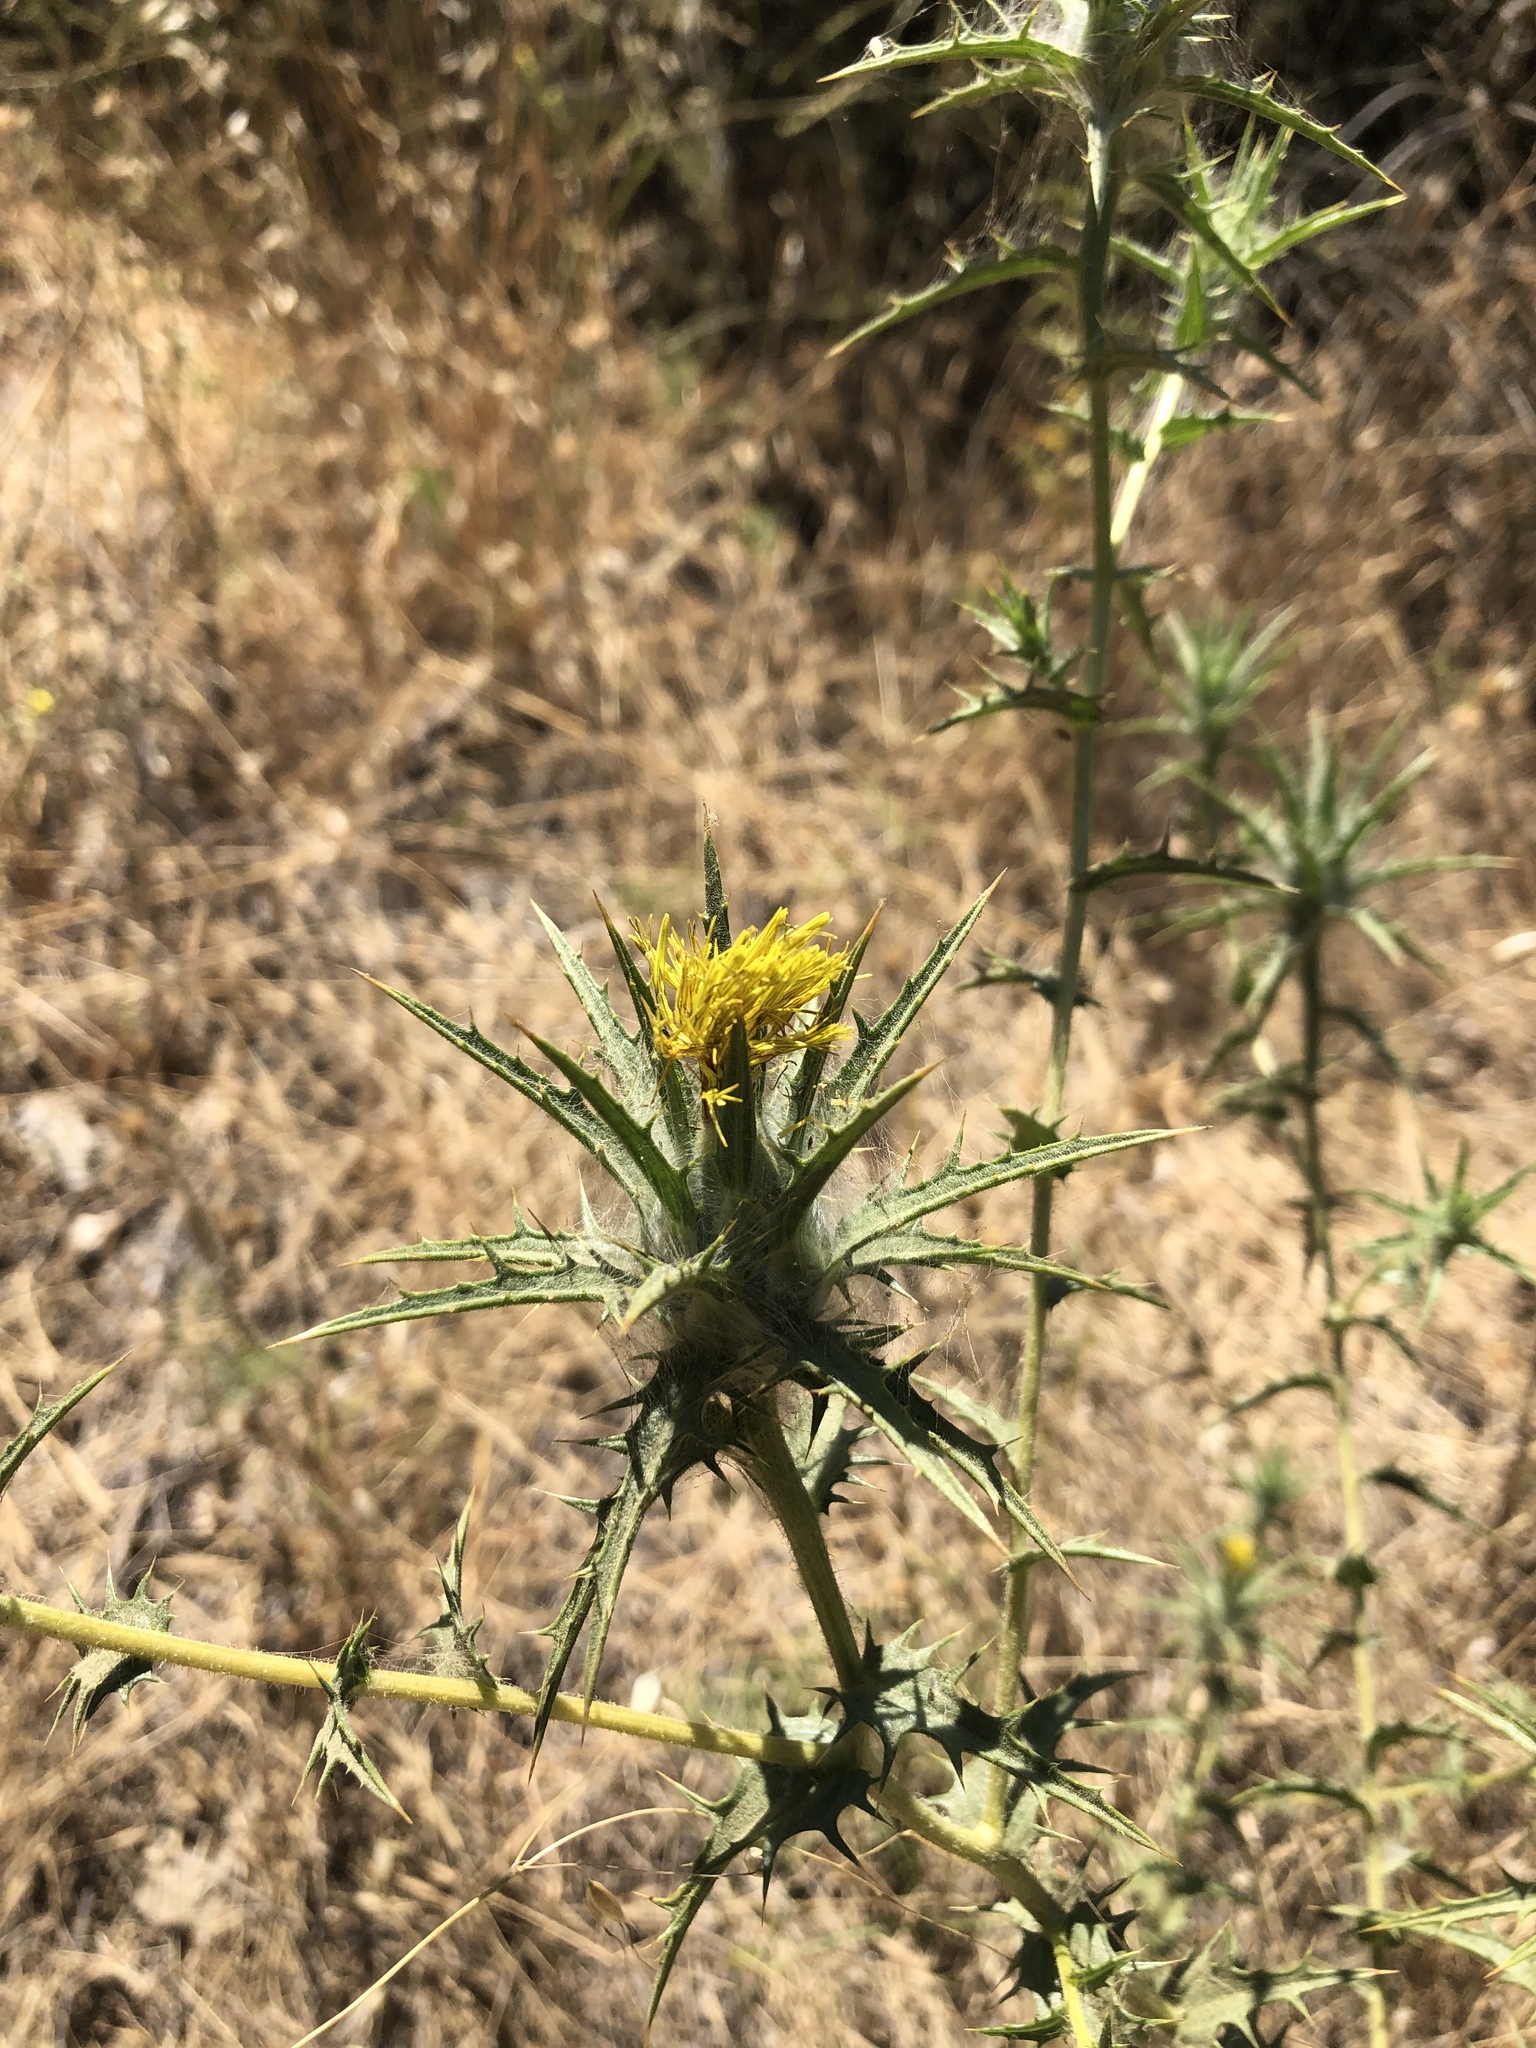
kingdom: Plantae
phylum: Tracheophyta
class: Magnoliopsida
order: Asterales
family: Asteraceae
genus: Carthamus
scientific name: Carthamus lanatus
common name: Downy safflower
